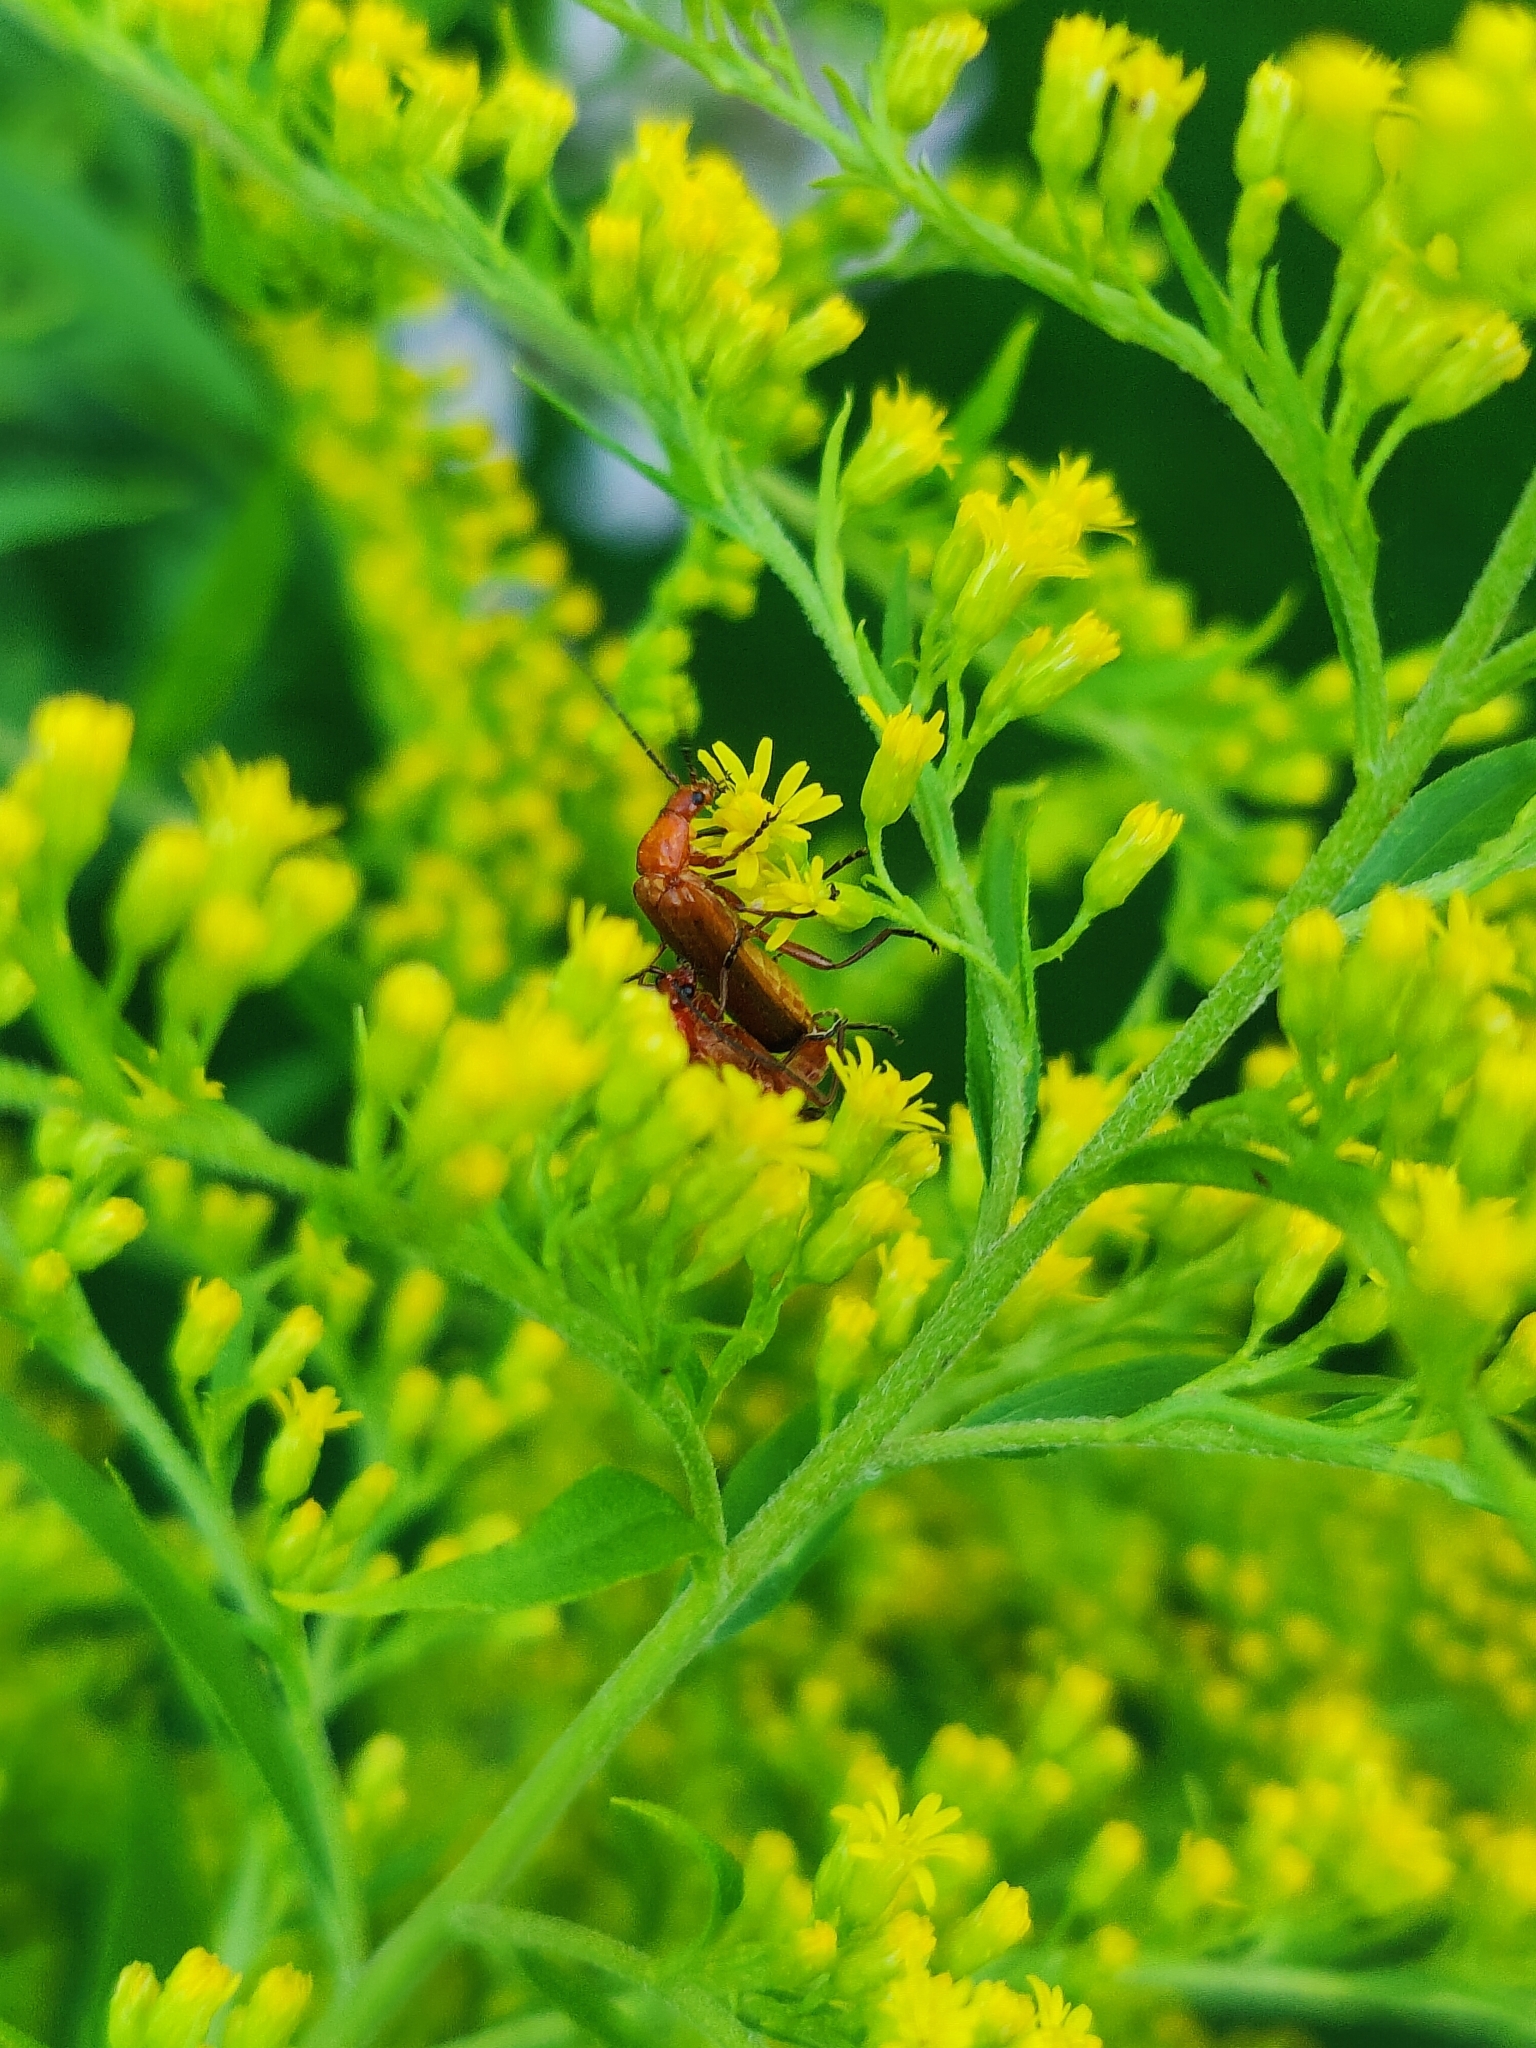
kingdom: Animalia
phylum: Arthropoda
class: Insecta
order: Coleoptera
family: Cantharidae
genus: Rhagonycha
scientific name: Rhagonycha fulva
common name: Common red soldier beetle
